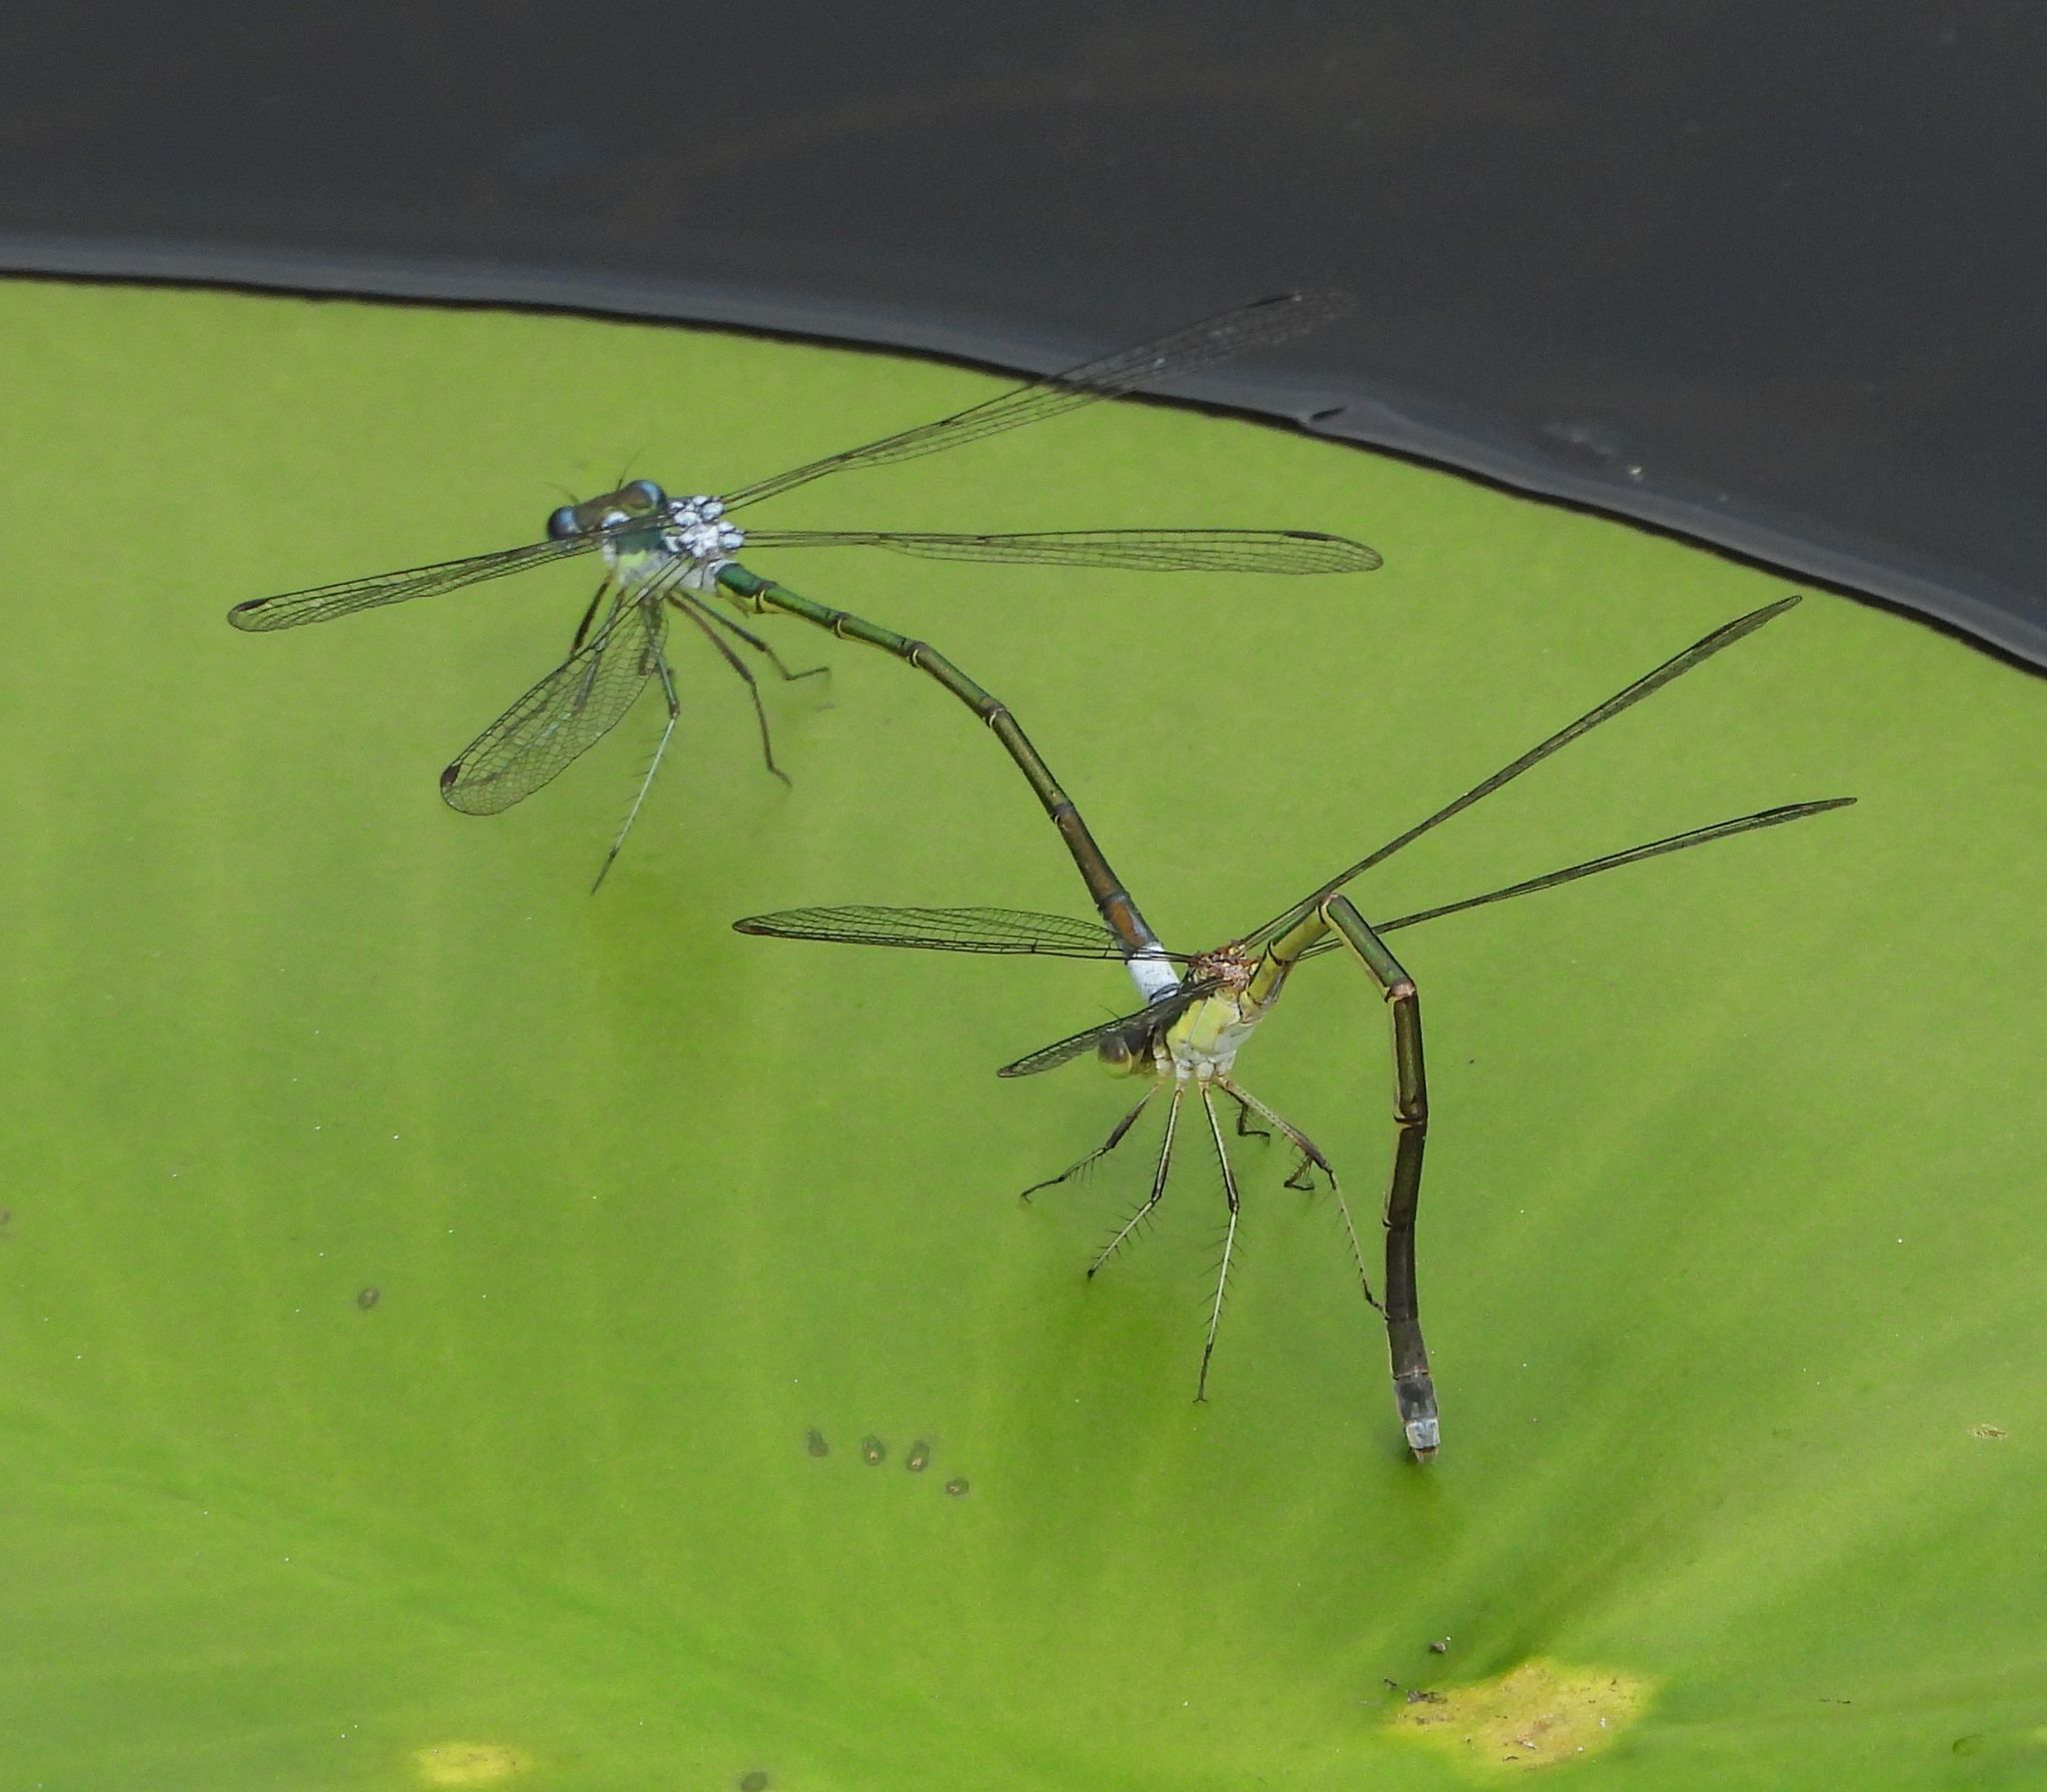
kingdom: Animalia
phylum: Arthropoda
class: Insecta
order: Odonata
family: Lestidae
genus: Lestes
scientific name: Lestes inaequalis
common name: Elegant spreadwing
